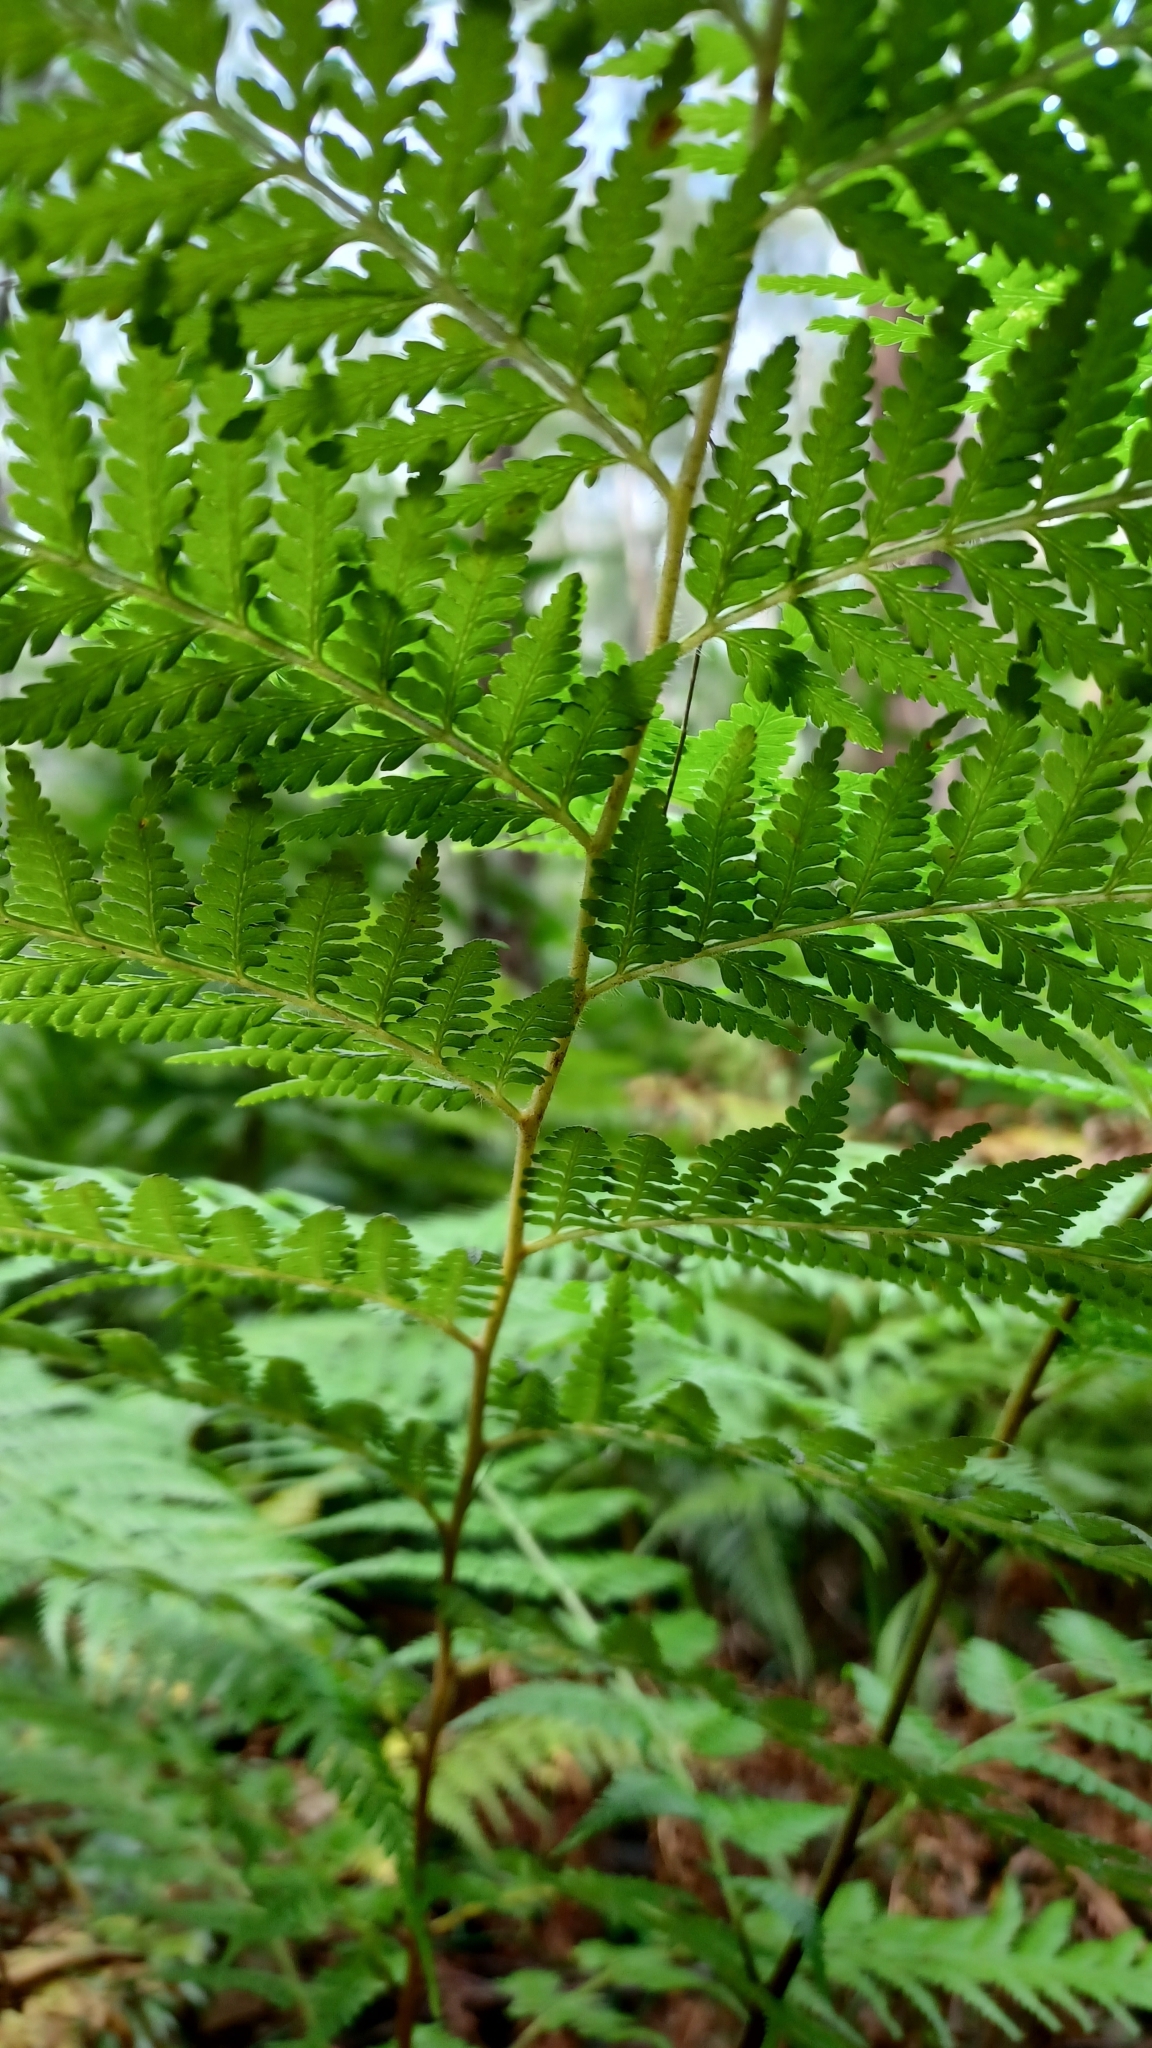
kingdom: Plantae
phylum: Tracheophyta
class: Polypodiopsida
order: Cyatheales
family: Dicksoniaceae
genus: Calochlaena
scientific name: Calochlaena dubia
